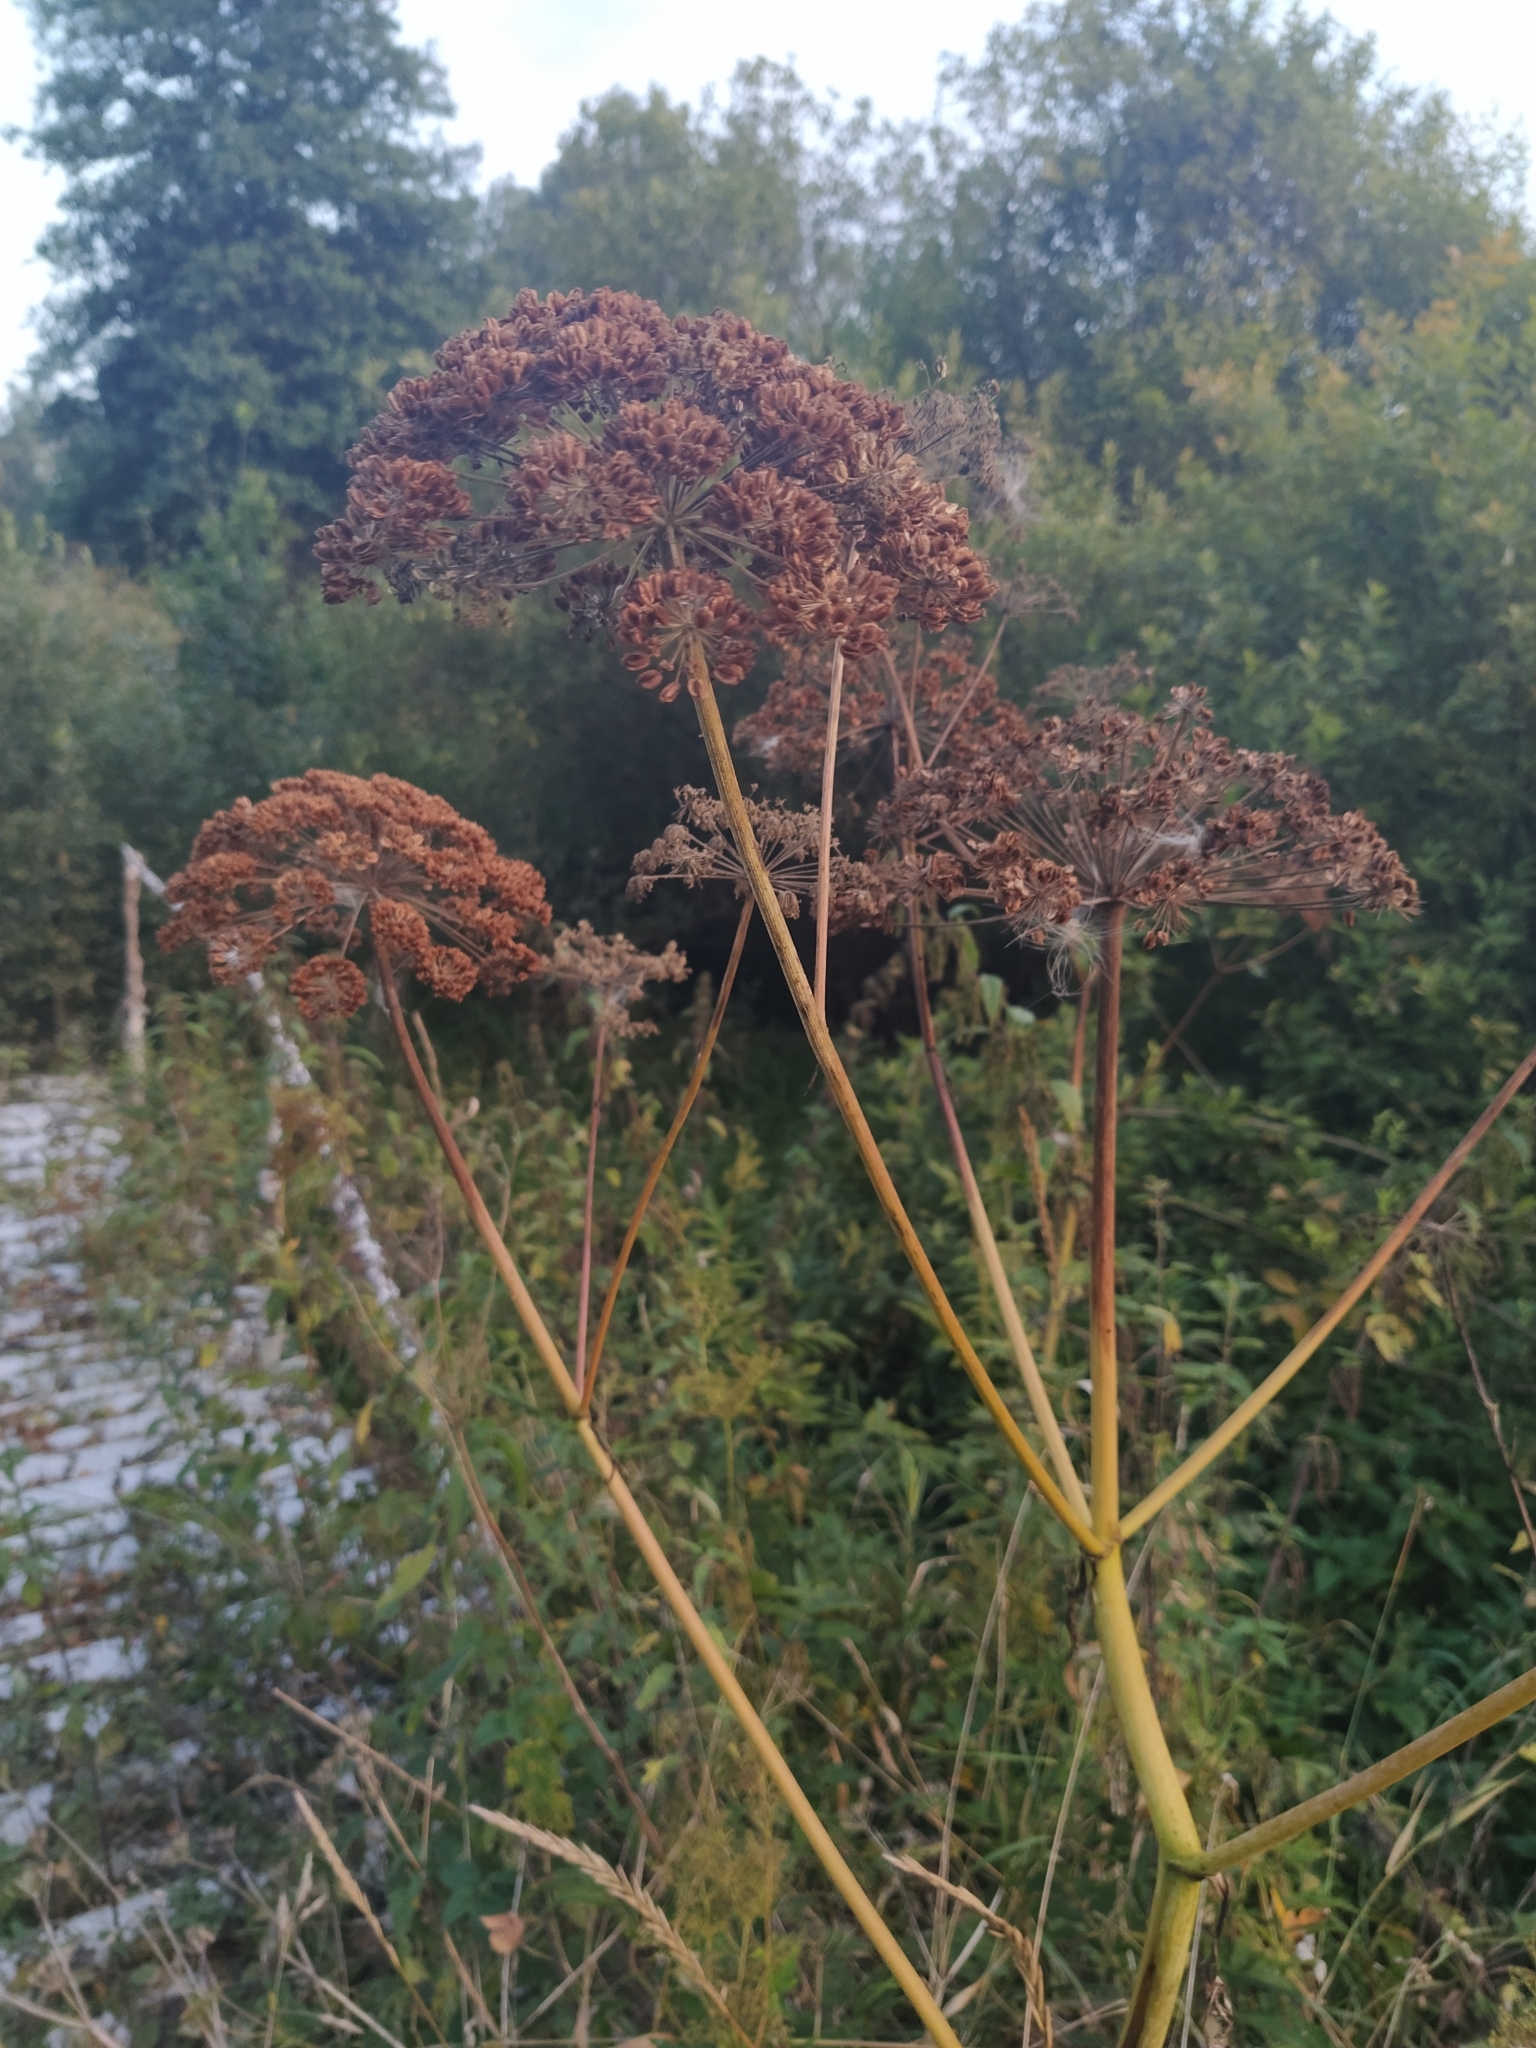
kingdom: Plantae
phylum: Tracheophyta
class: Magnoliopsida
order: Apiales
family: Apiaceae
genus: Angelica
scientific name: Angelica sylvestris
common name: Wild angelica
